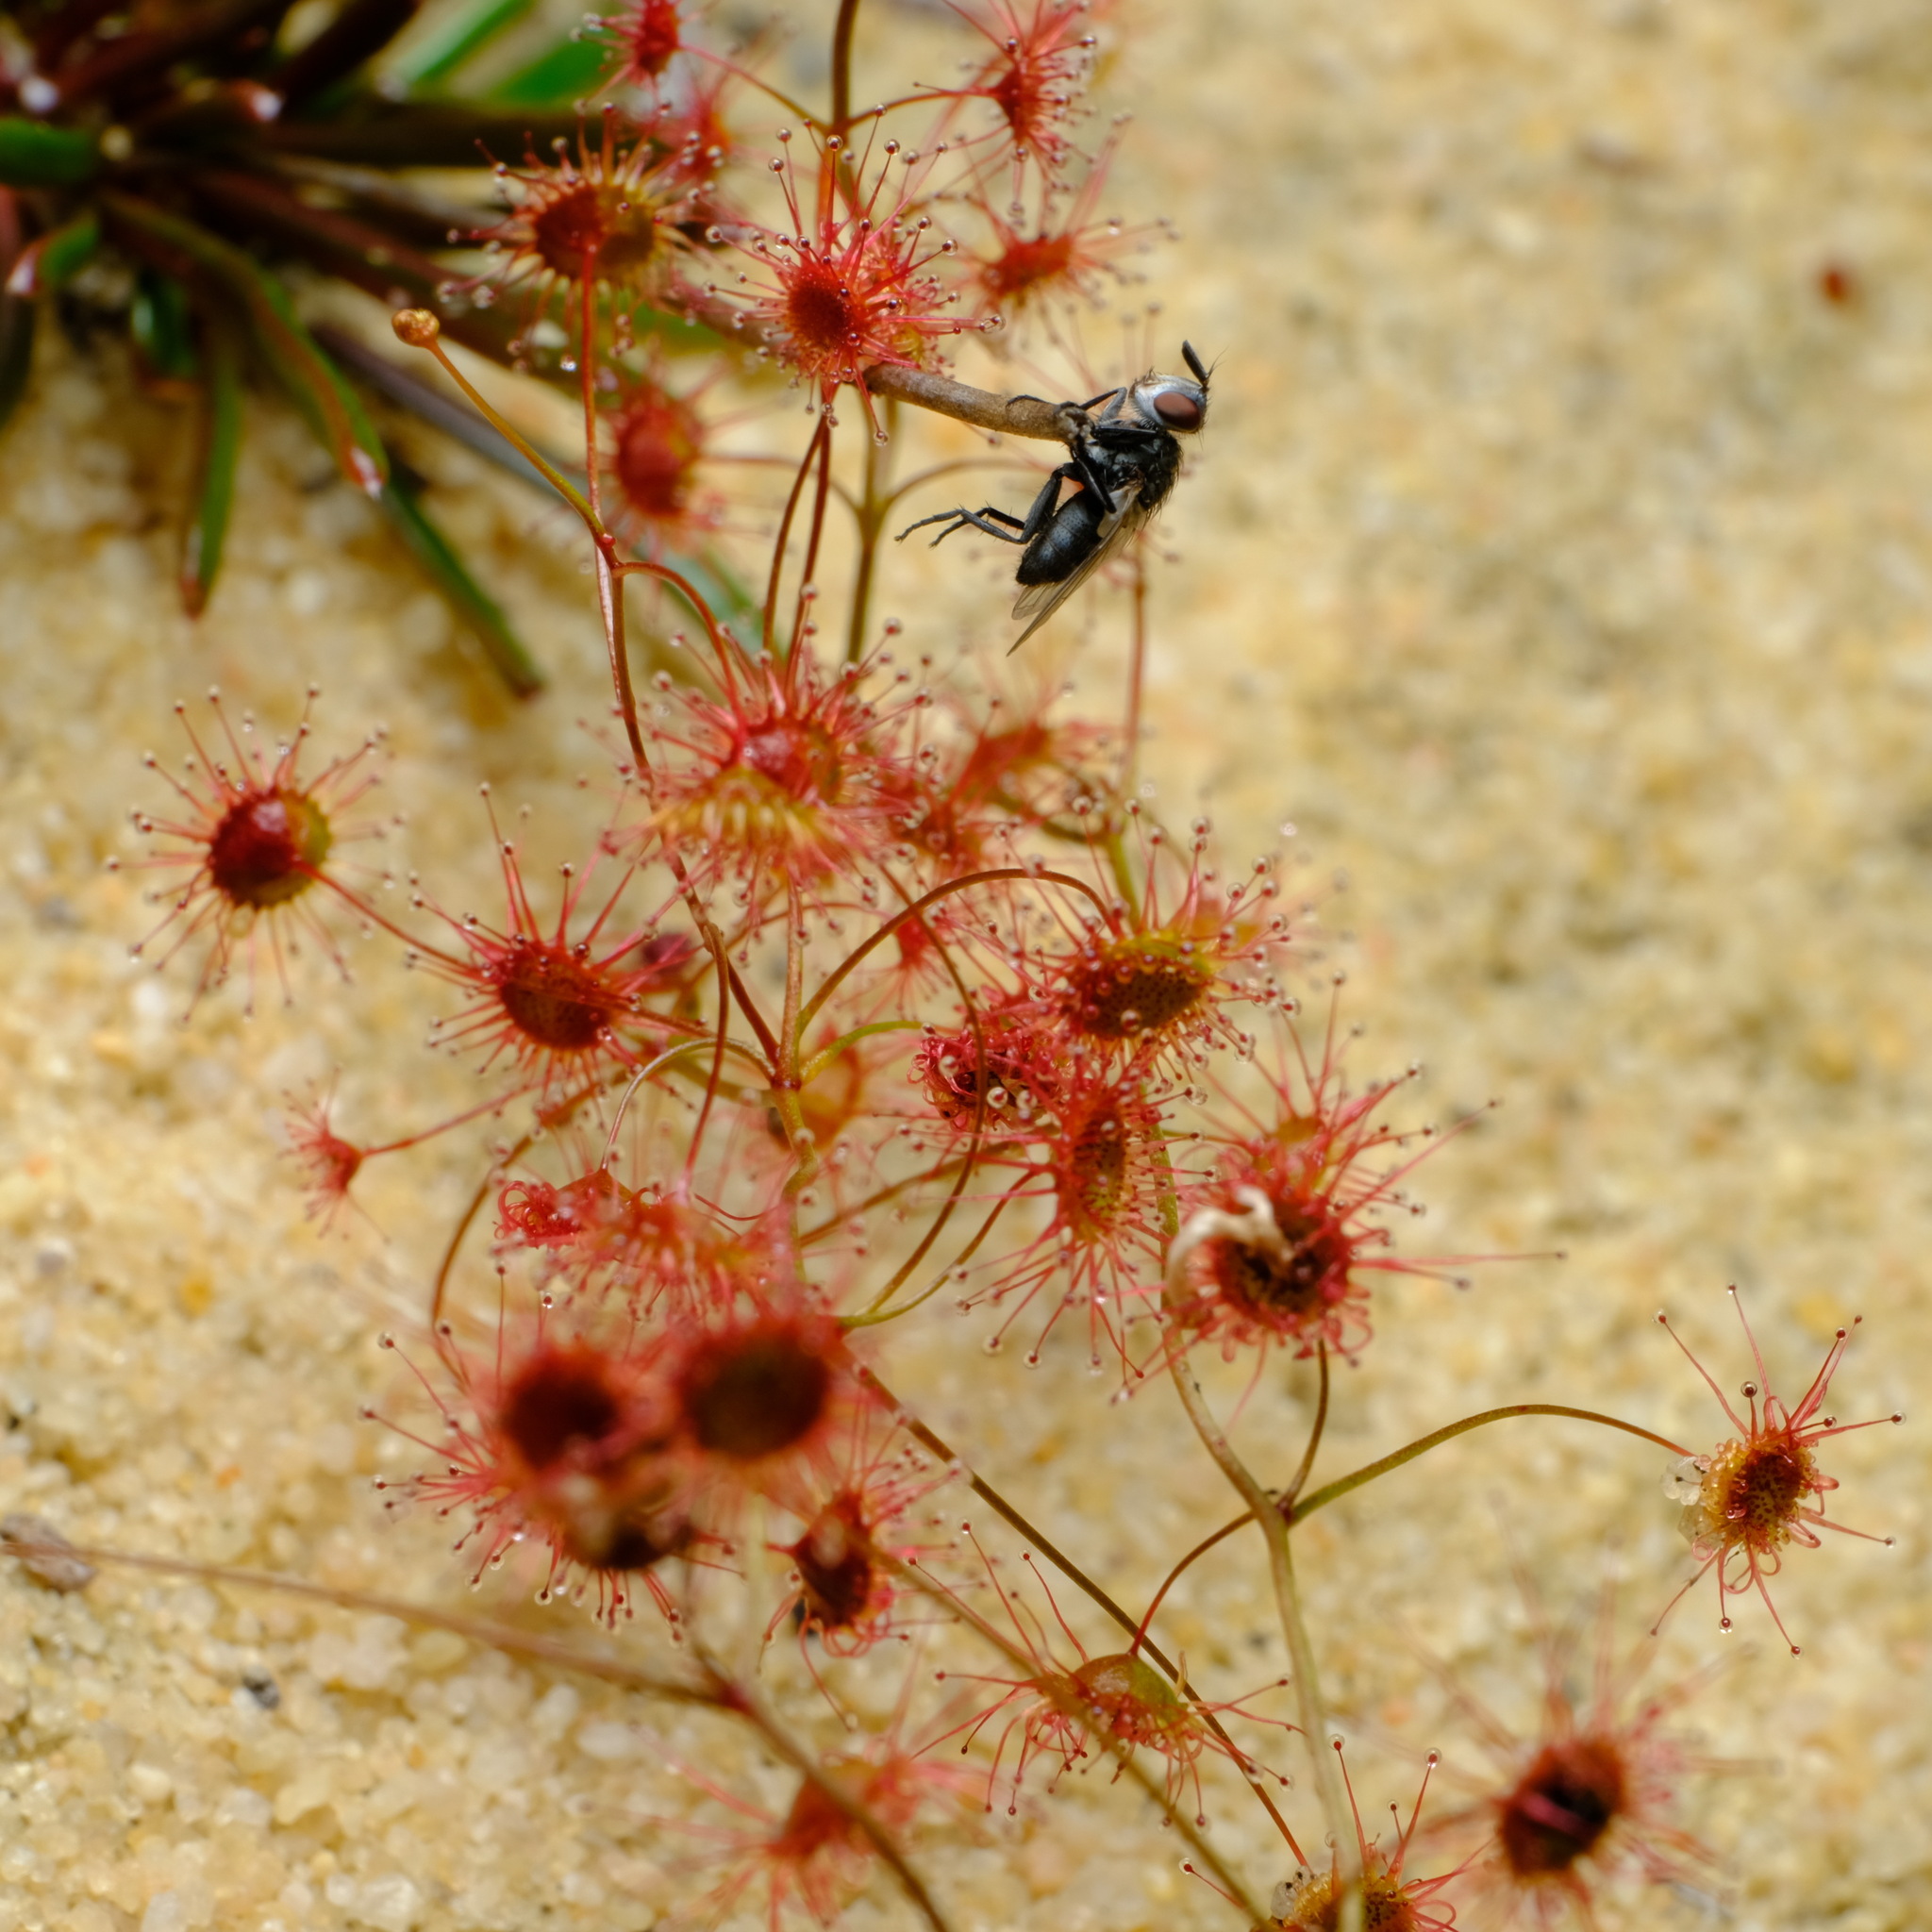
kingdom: Plantae
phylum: Tracheophyta
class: Magnoliopsida
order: Caryophyllales
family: Droseraceae
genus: Drosera
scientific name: Drosera menziesii
